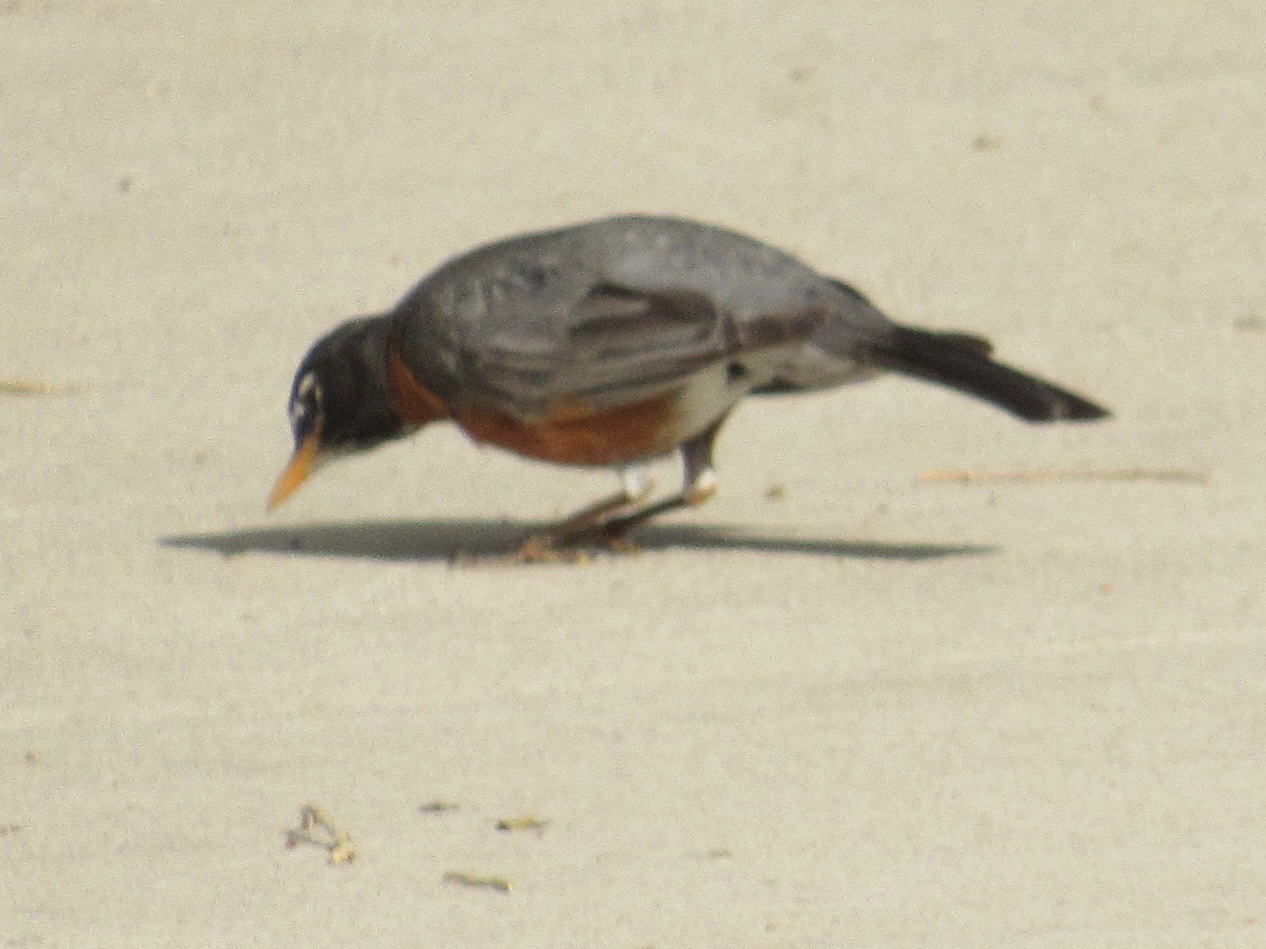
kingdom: Animalia
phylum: Chordata
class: Aves
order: Passeriformes
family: Turdidae
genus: Turdus
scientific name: Turdus migratorius
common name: American robin
